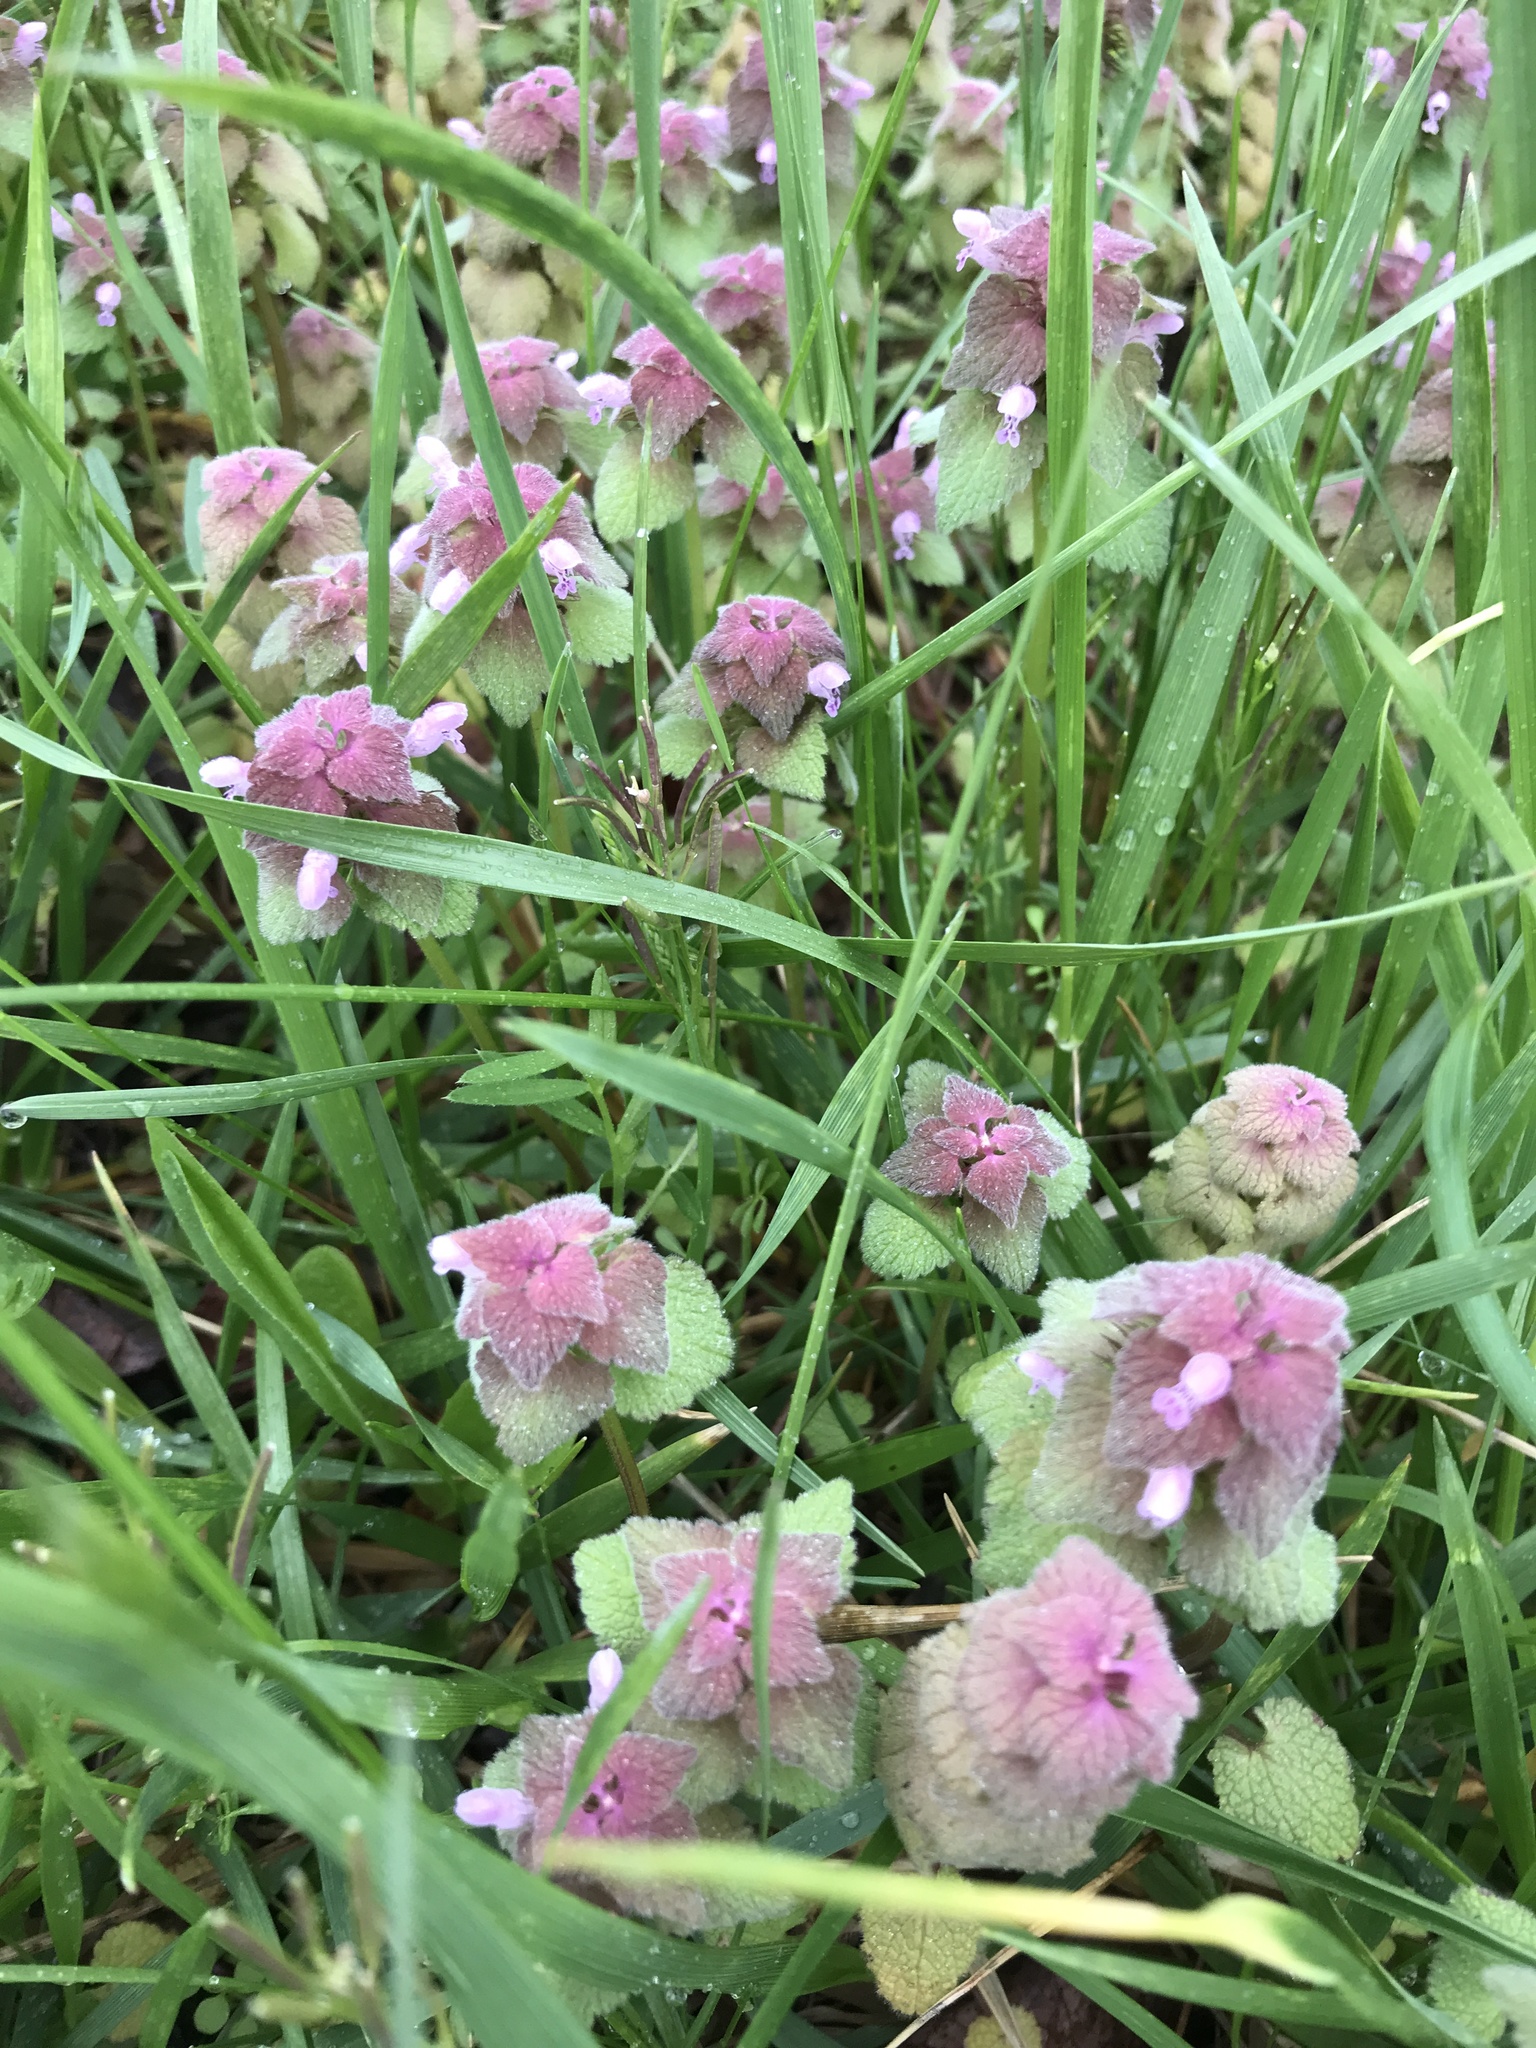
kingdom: Plantae
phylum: Tracheophyta
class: Magnoliopsida
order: Lamiales
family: Lamiaceae
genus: Lamium
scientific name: Lamium purpureum
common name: Red dead-nettle
